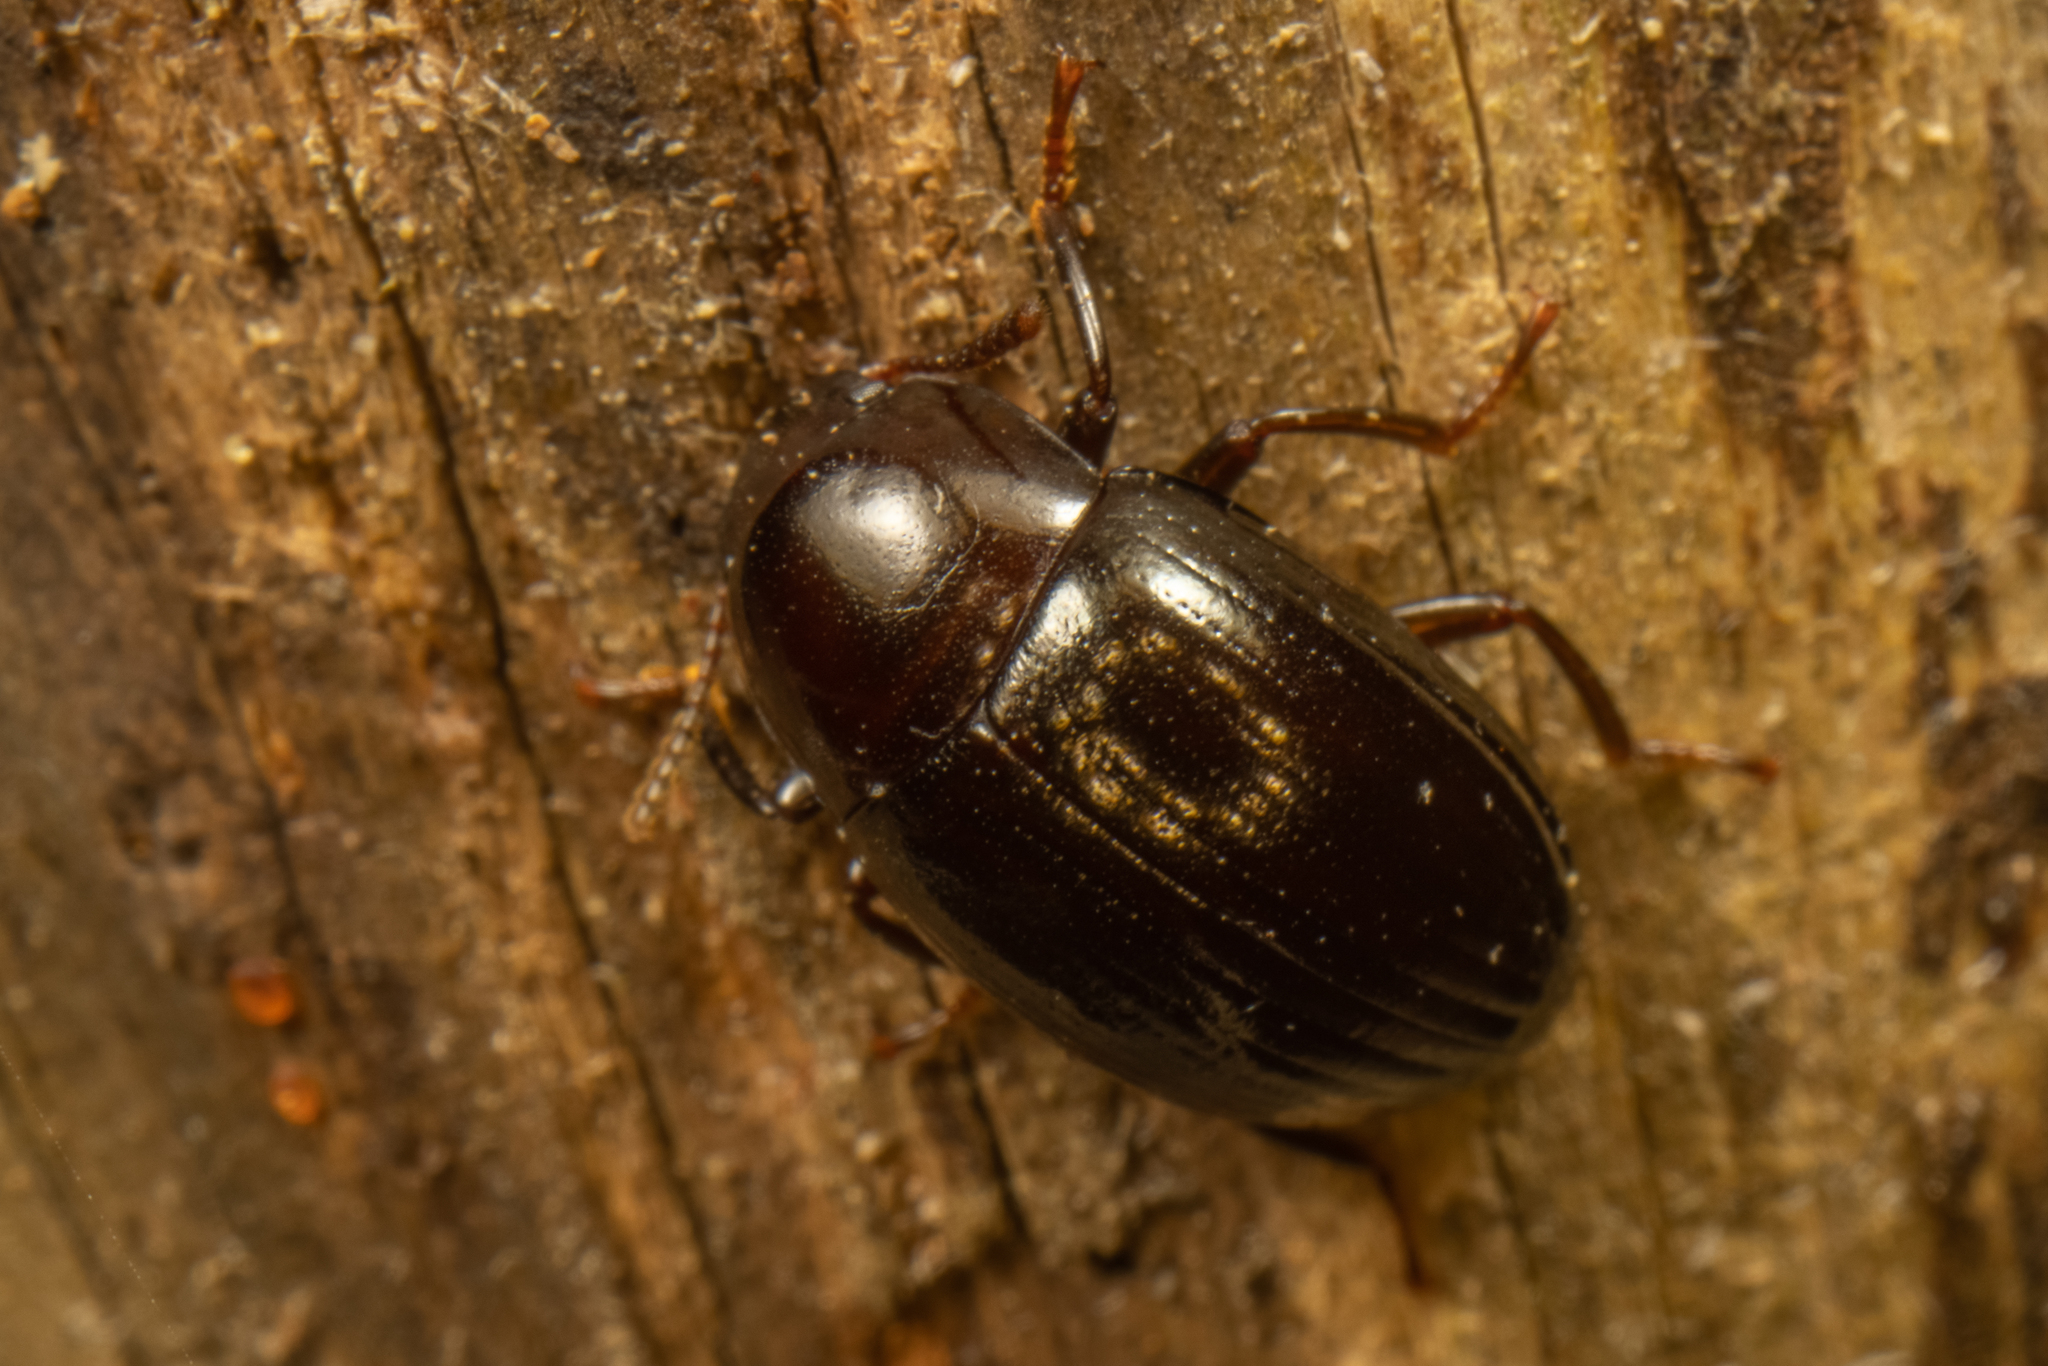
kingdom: Animalia
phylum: Arthropoda
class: Insecta
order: Coleoptera
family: Tenebrionidae
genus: Chrysopeplus
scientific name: Chrysopeplus expolitus
